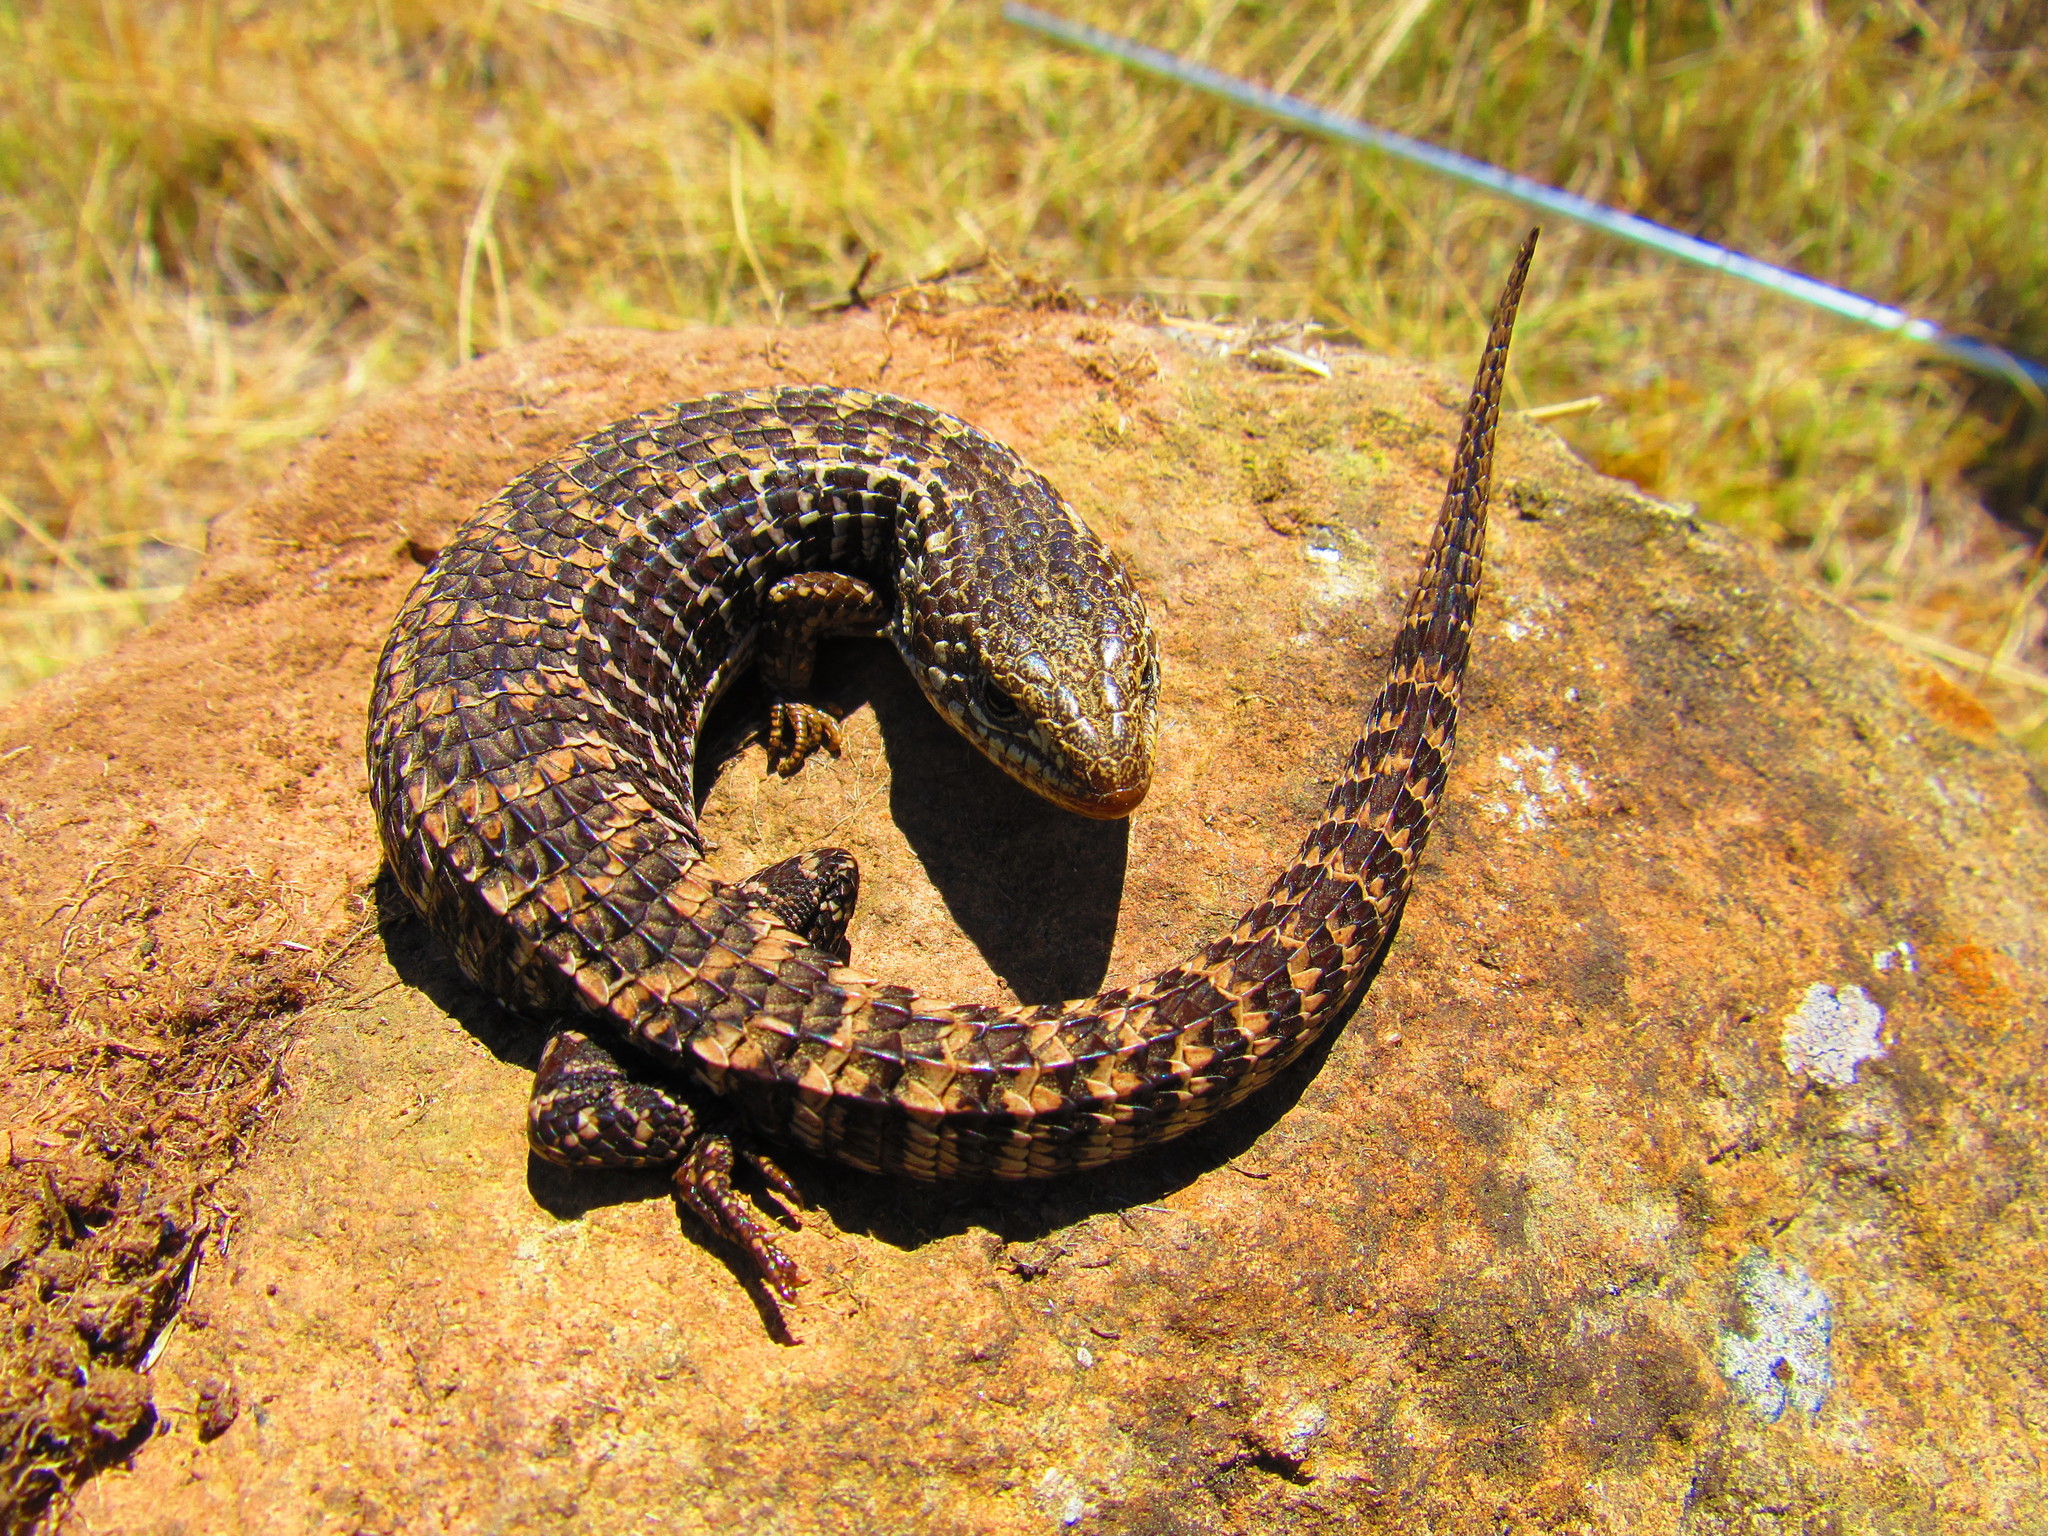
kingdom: Animalia
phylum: Chordata
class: Squamata
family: Anguidae
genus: Barisia
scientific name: Barisia imbricata
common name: Imbricate alligator lizard
